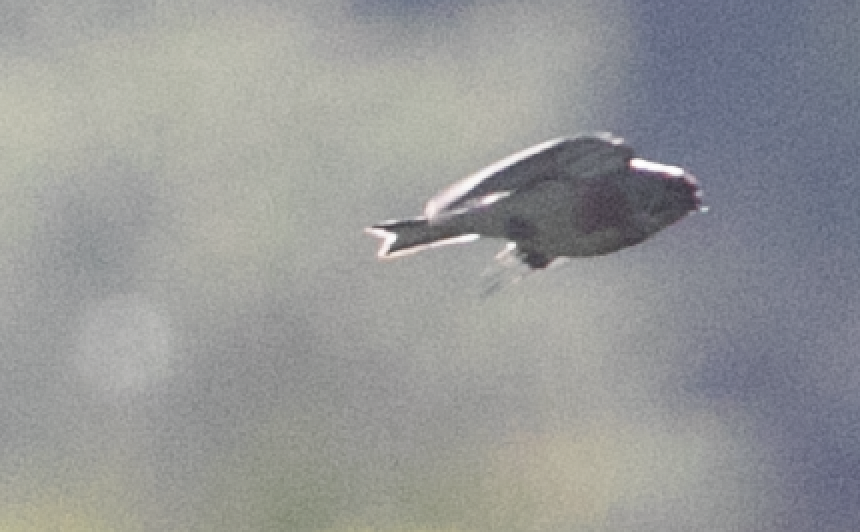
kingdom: Animalia
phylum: Chordata
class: Aves
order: Passeriformes
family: Fringillidae
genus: Linaria
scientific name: Linaria cannabina
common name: Common linnet
